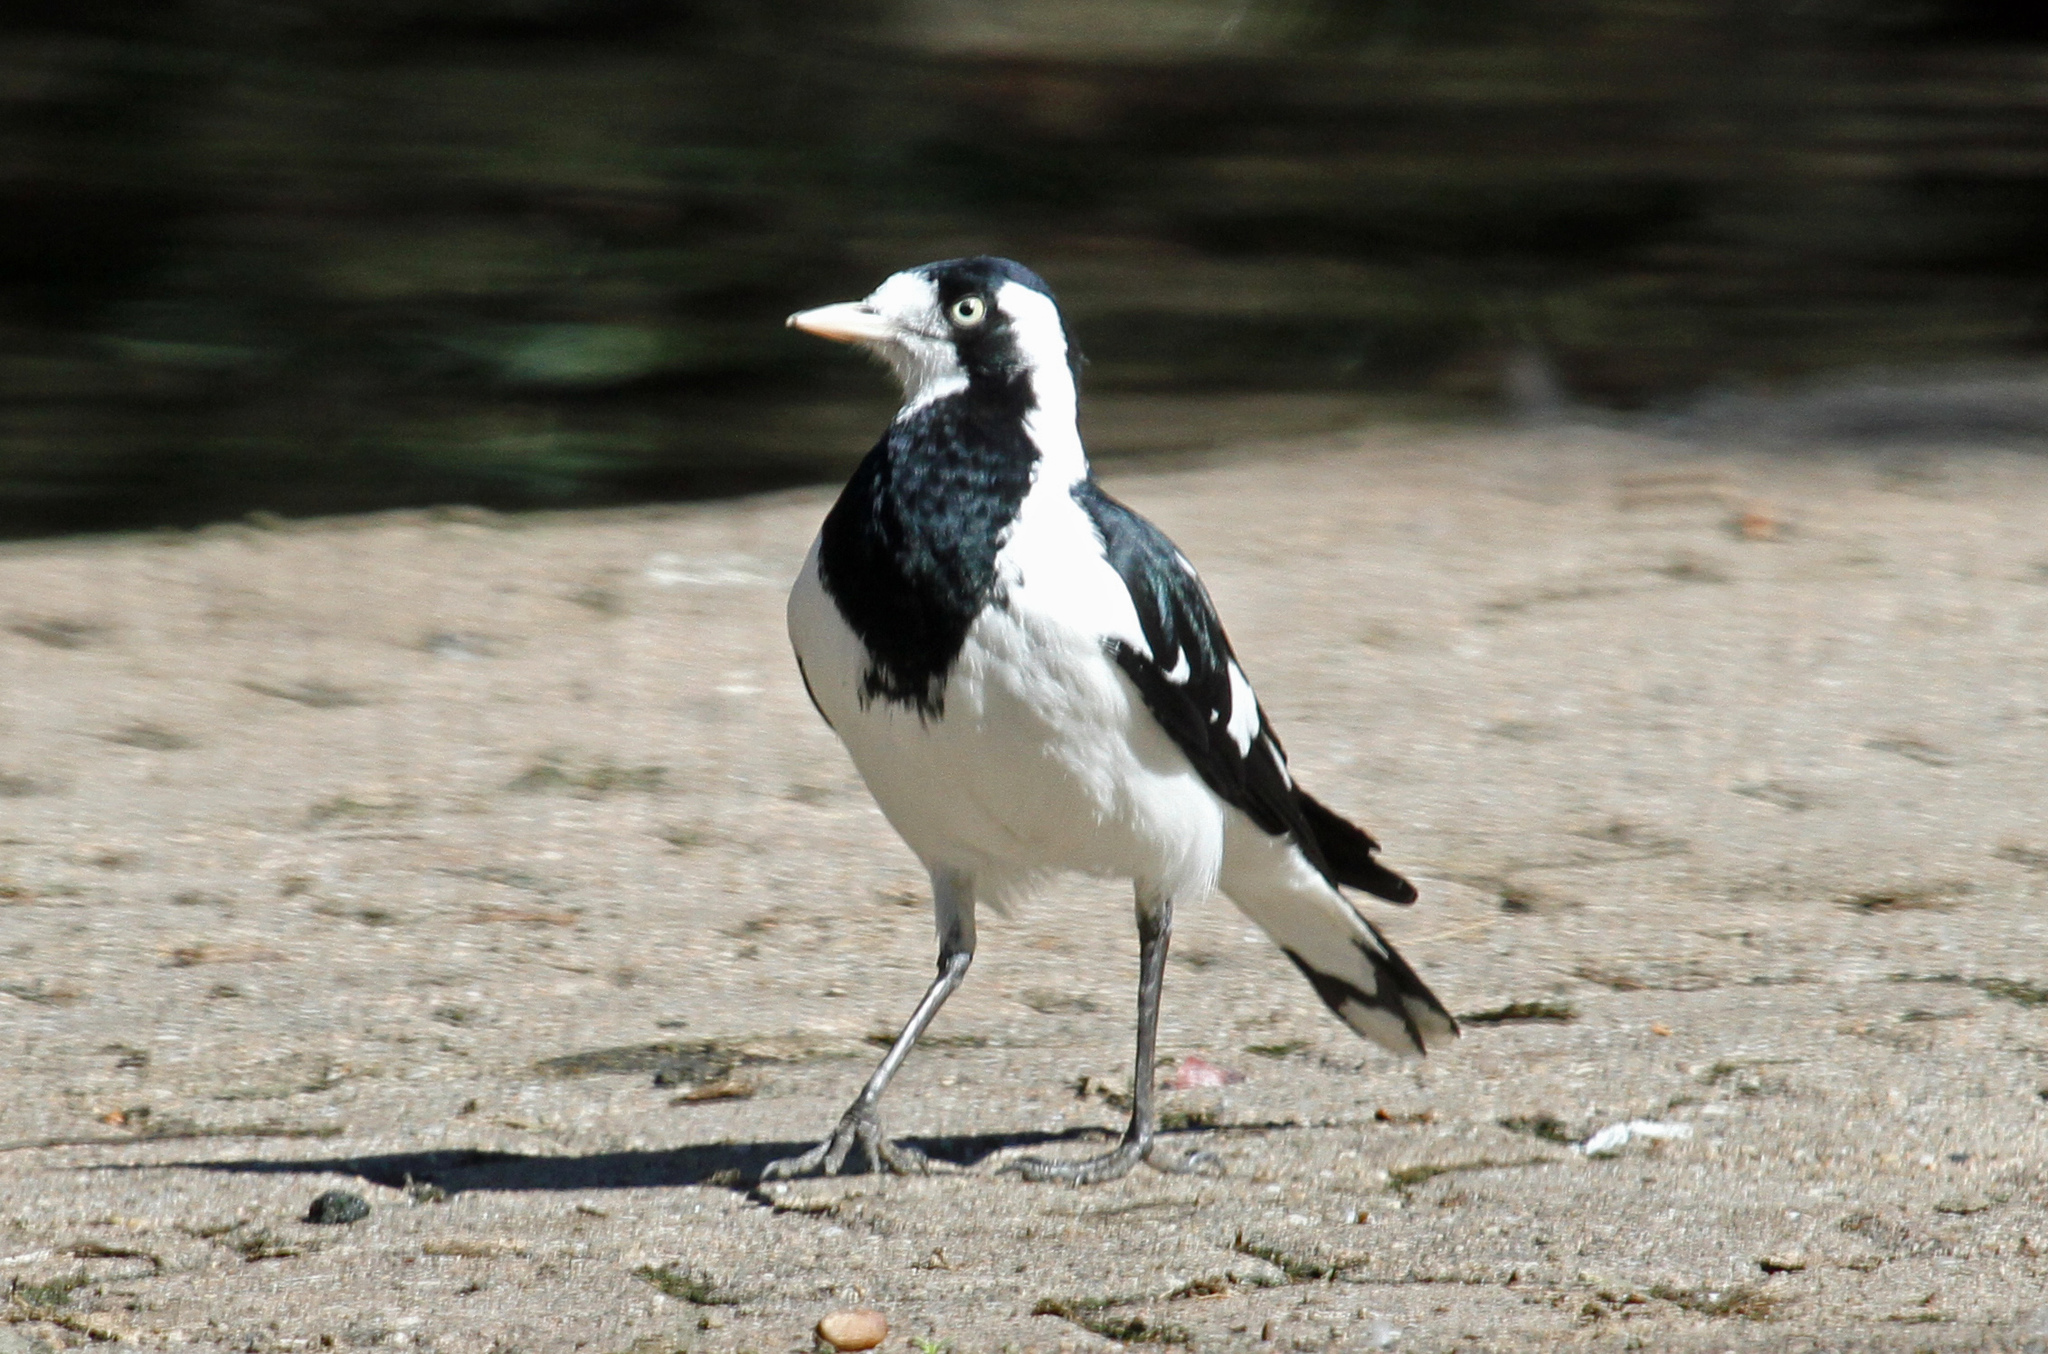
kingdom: Animalia
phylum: Chordata
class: Aves
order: Passeriformes
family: Monarchidae
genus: Grallina
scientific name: Grallina cyanoleuca
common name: Magpie-lark
